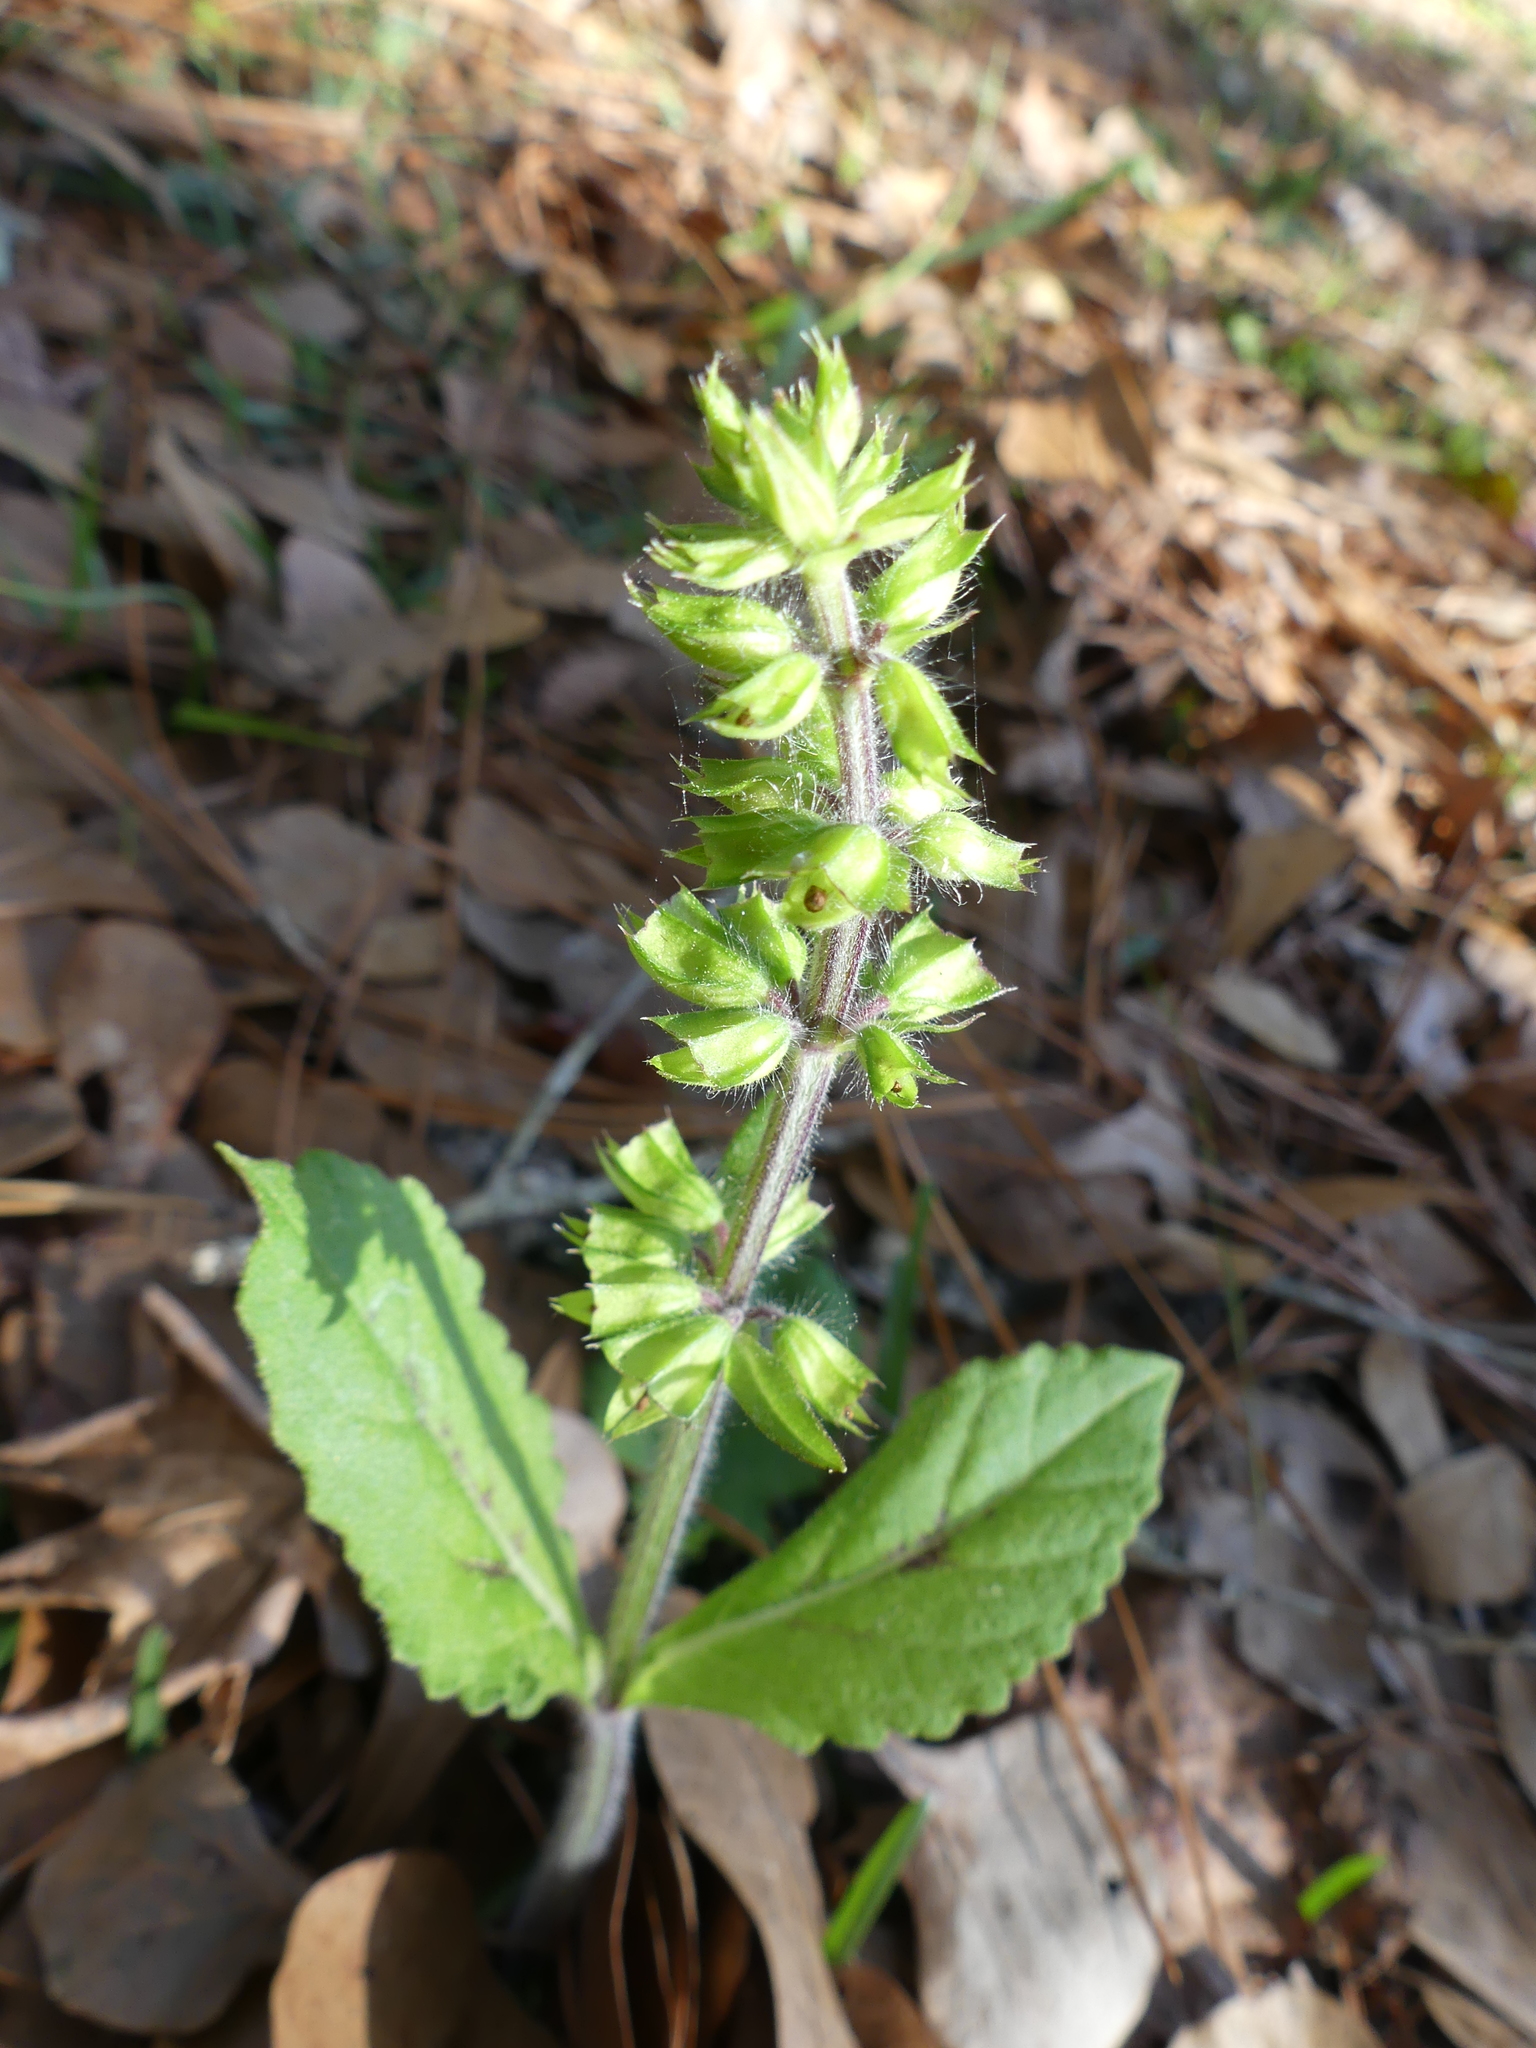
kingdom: Plantae
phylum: Tracheophyta
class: Magnoliopsida
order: Lamiales
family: Lamiaceae
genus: Salvia
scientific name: Salvia lyrata
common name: Cancerweed
